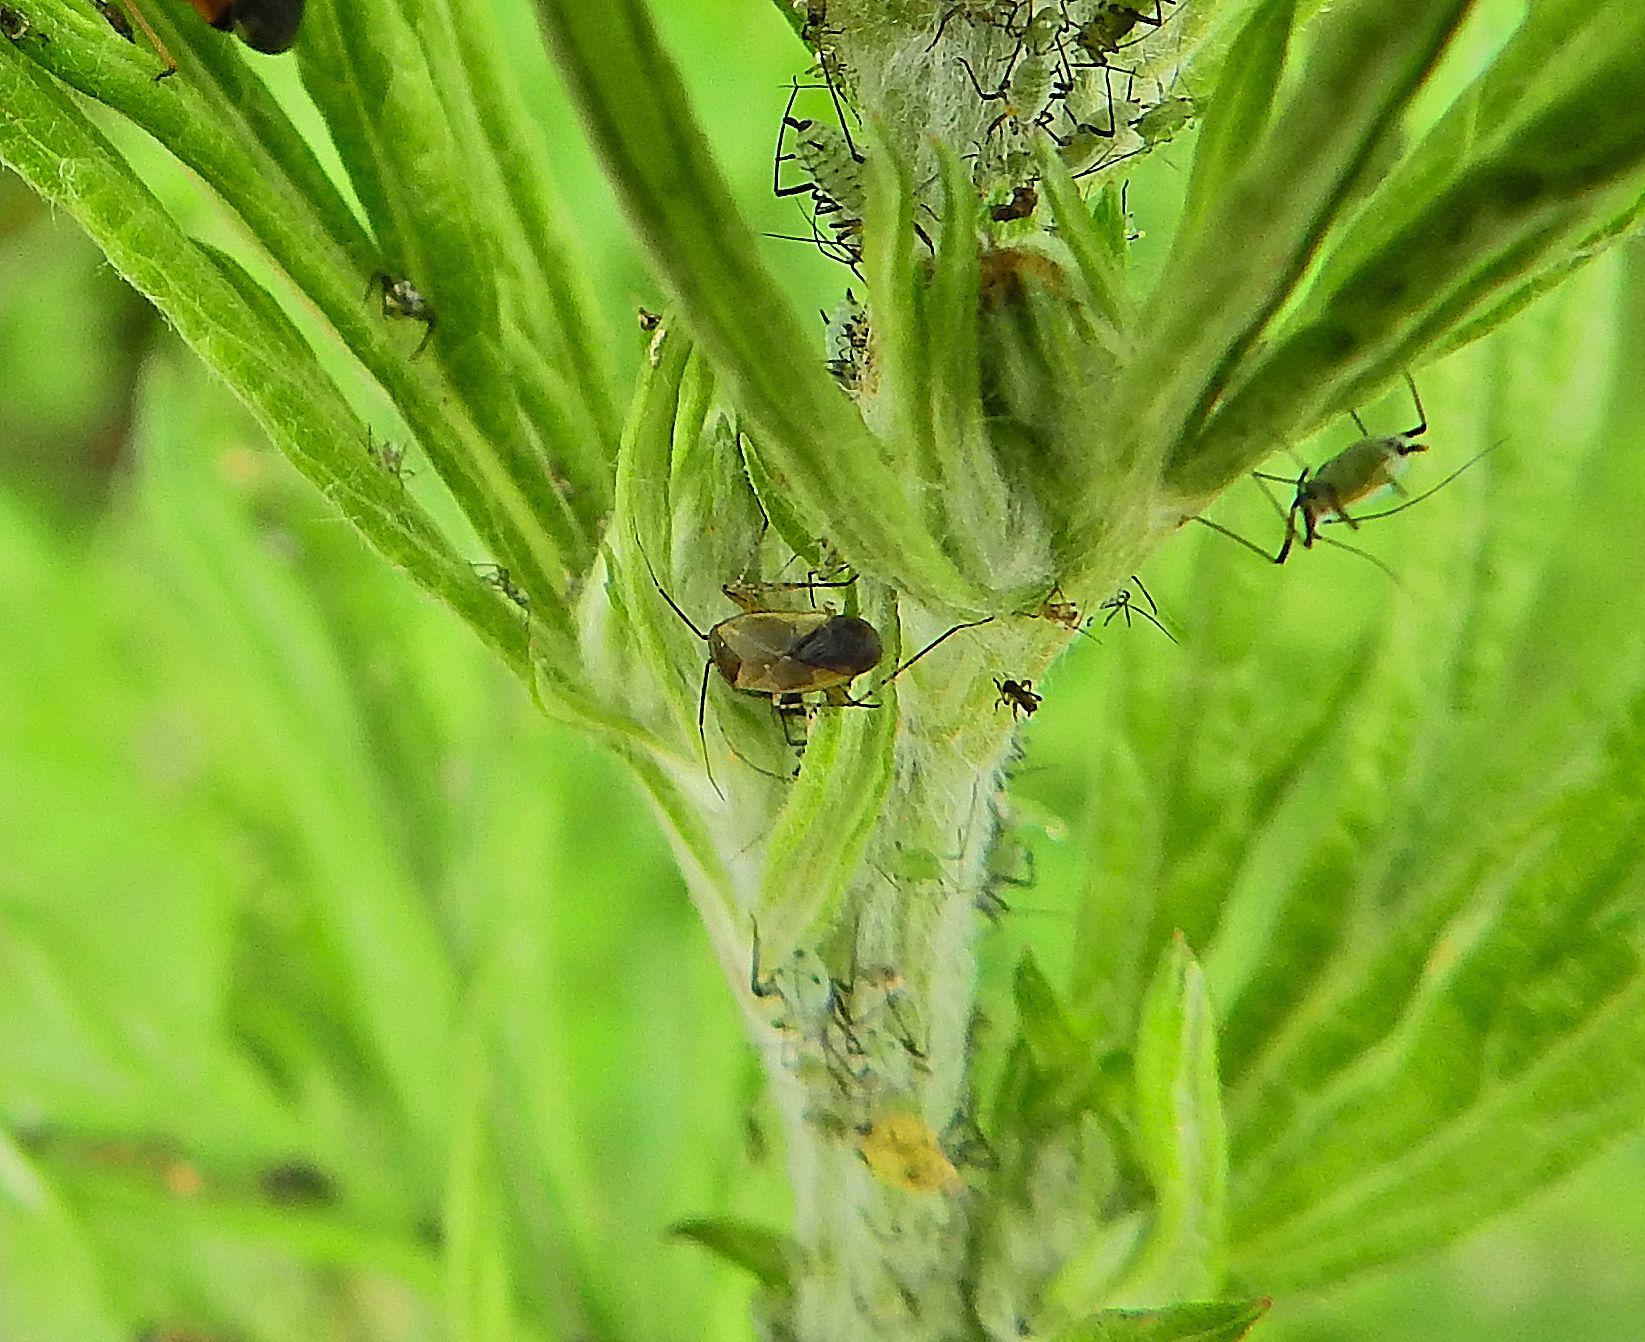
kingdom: Animalia
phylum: Arthropoda
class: Insecta
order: Hemiptera
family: Miridae
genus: Plagiognathus
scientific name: Plagiognathus arbustorum
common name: Plant bug
